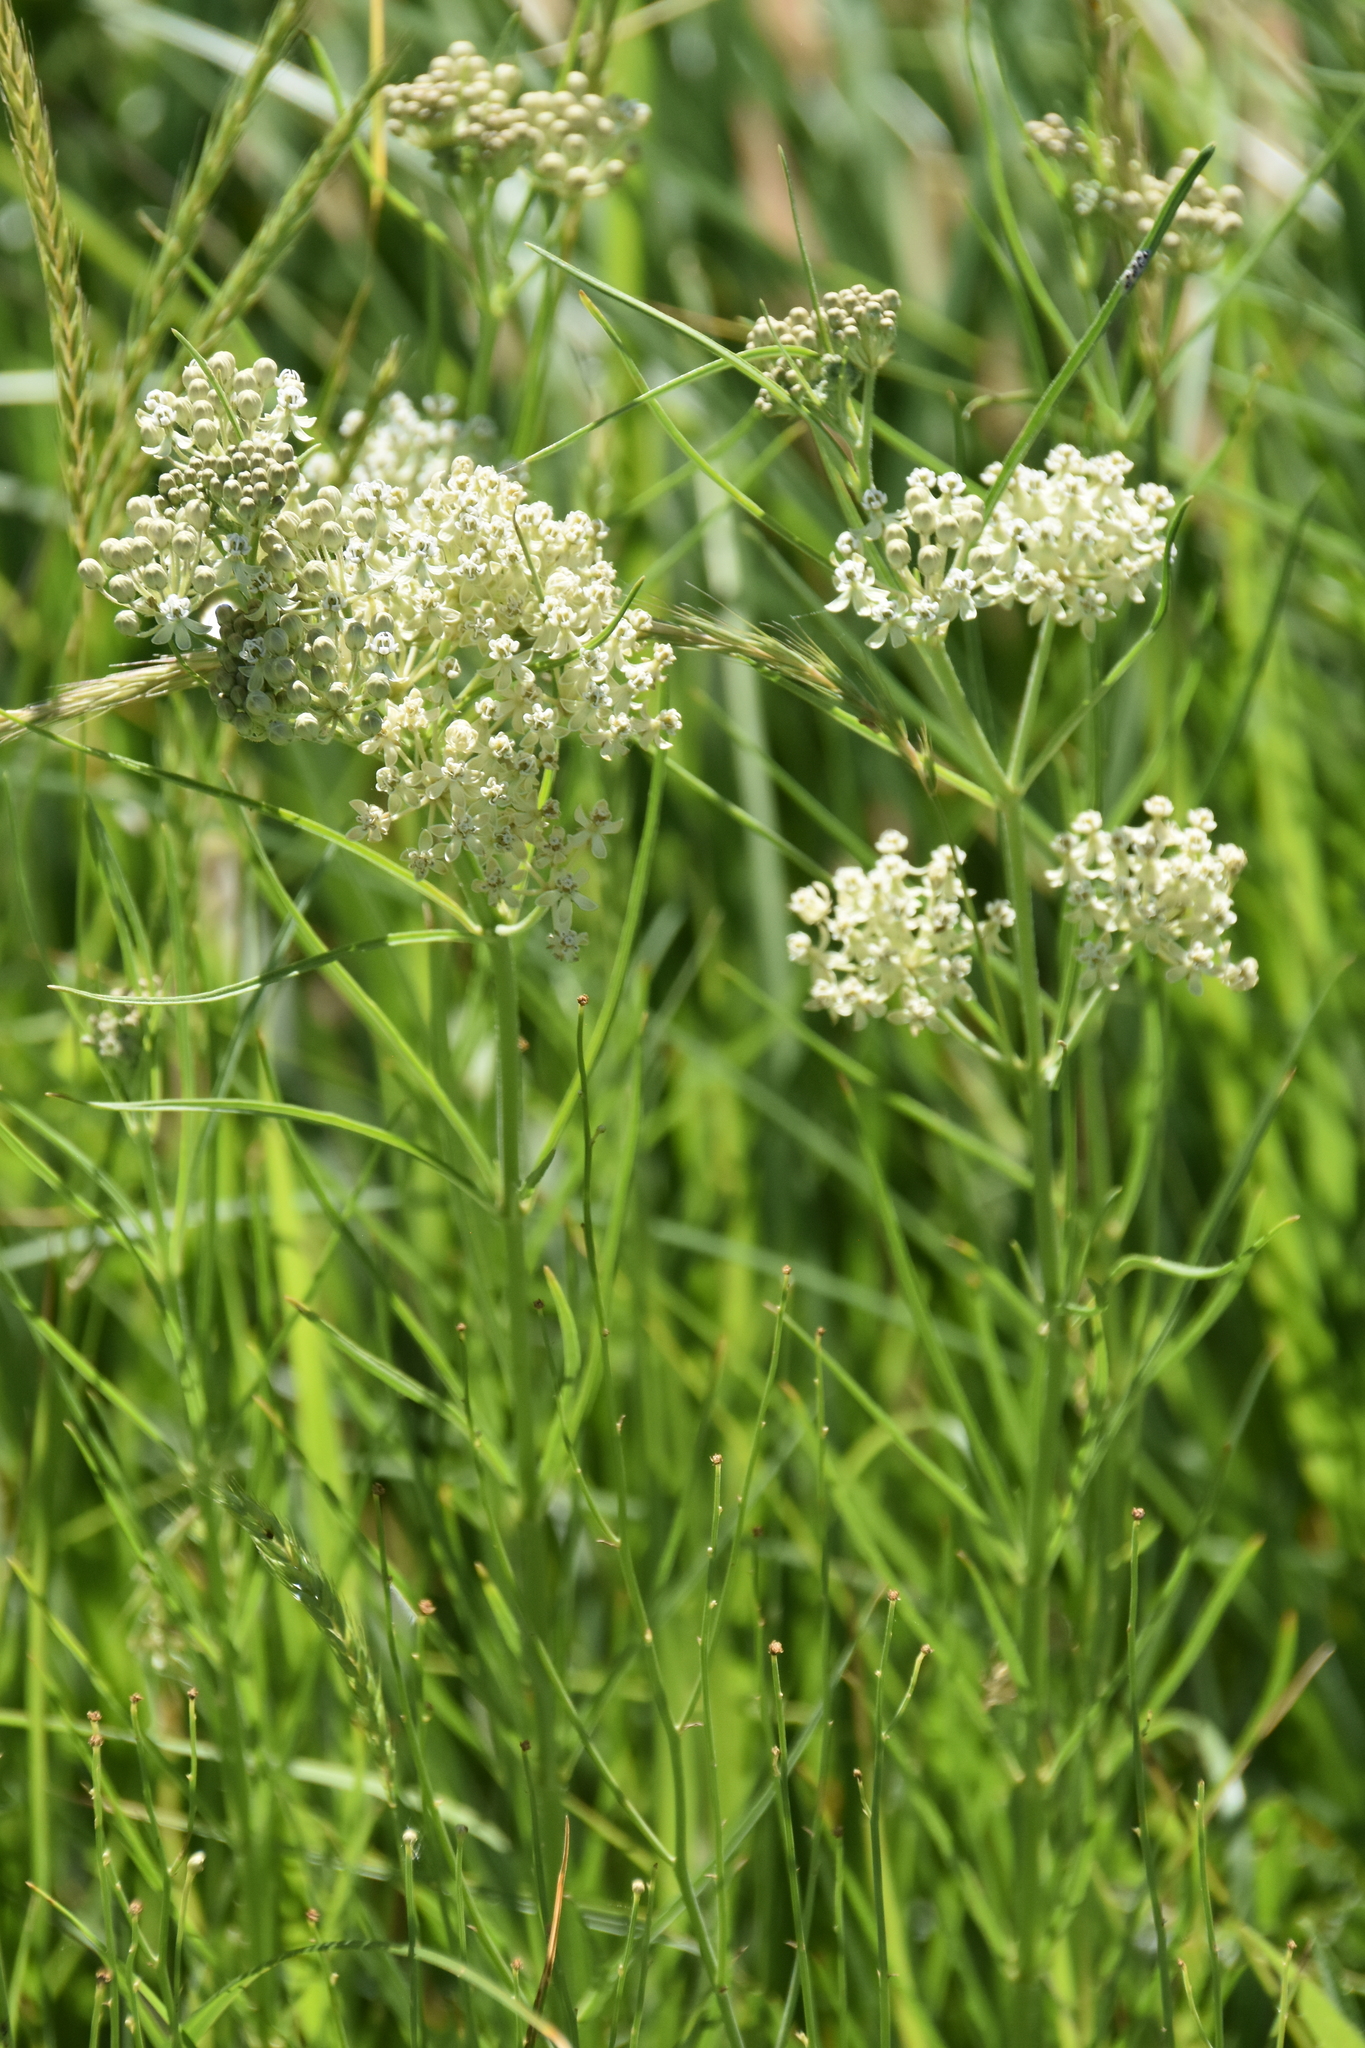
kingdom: Plantae
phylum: Tracheophyta
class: Magnoliopsida
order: Gentianales
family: Apocynaceae
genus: Asclepias
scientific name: Asclepias subverticillata
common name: Horsetail milkweed
